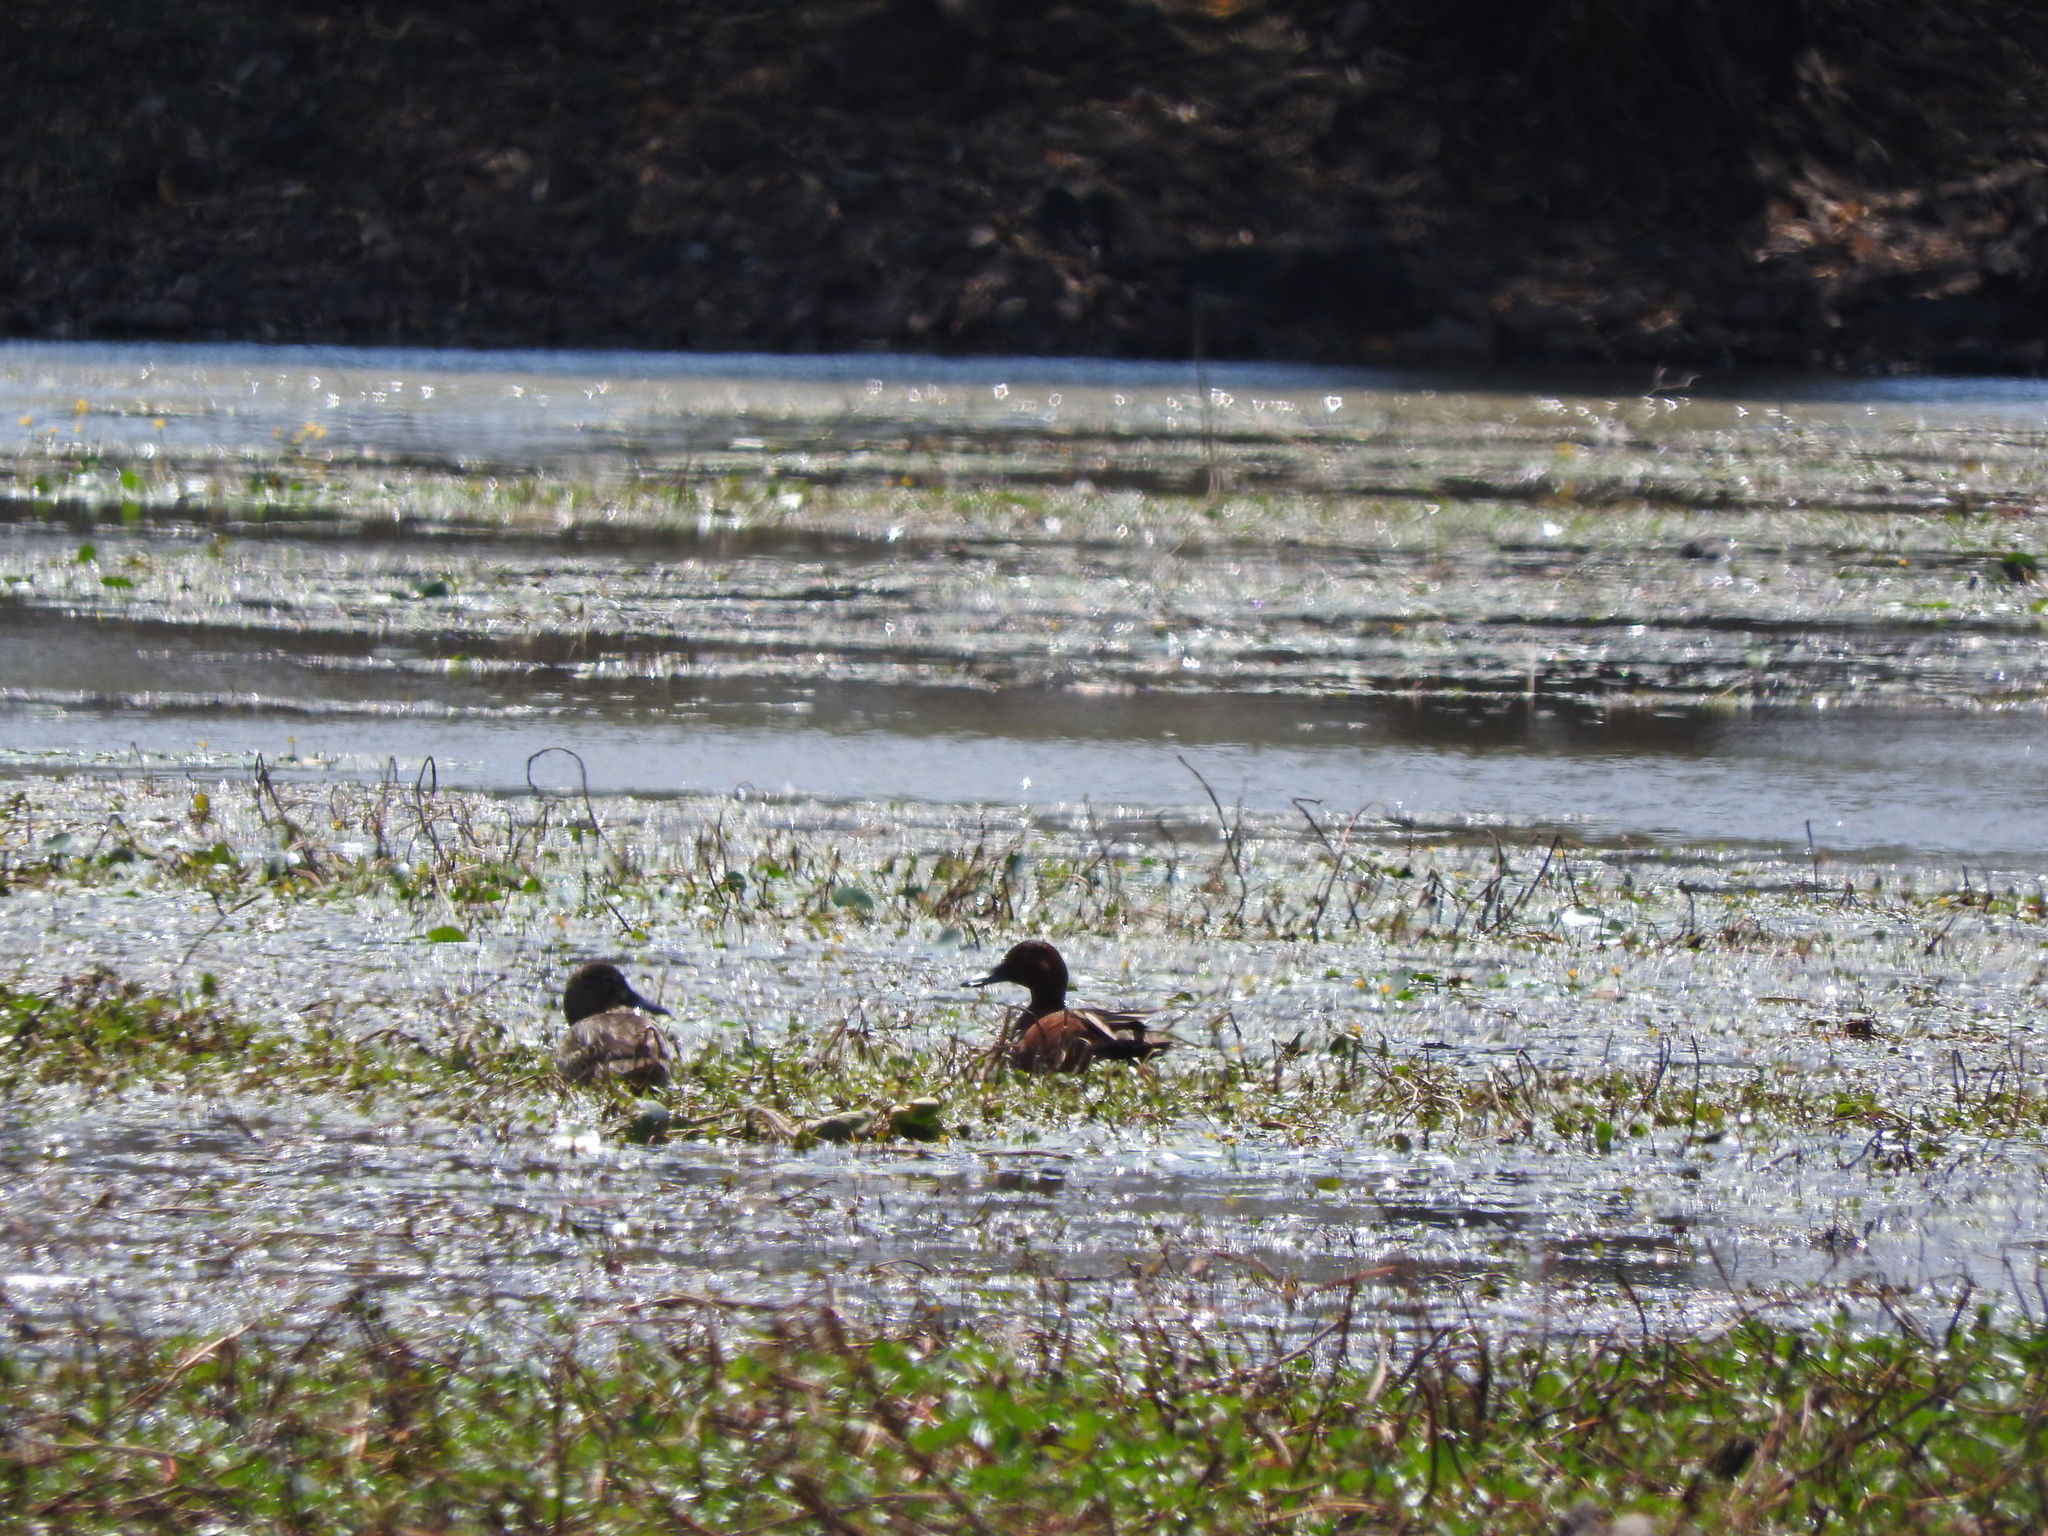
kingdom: Animalia
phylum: Chordata
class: Aves
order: Anseriformes
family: Anatidae
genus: Spatula
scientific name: Spatula cyanoptera
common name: Cinnamon teal
